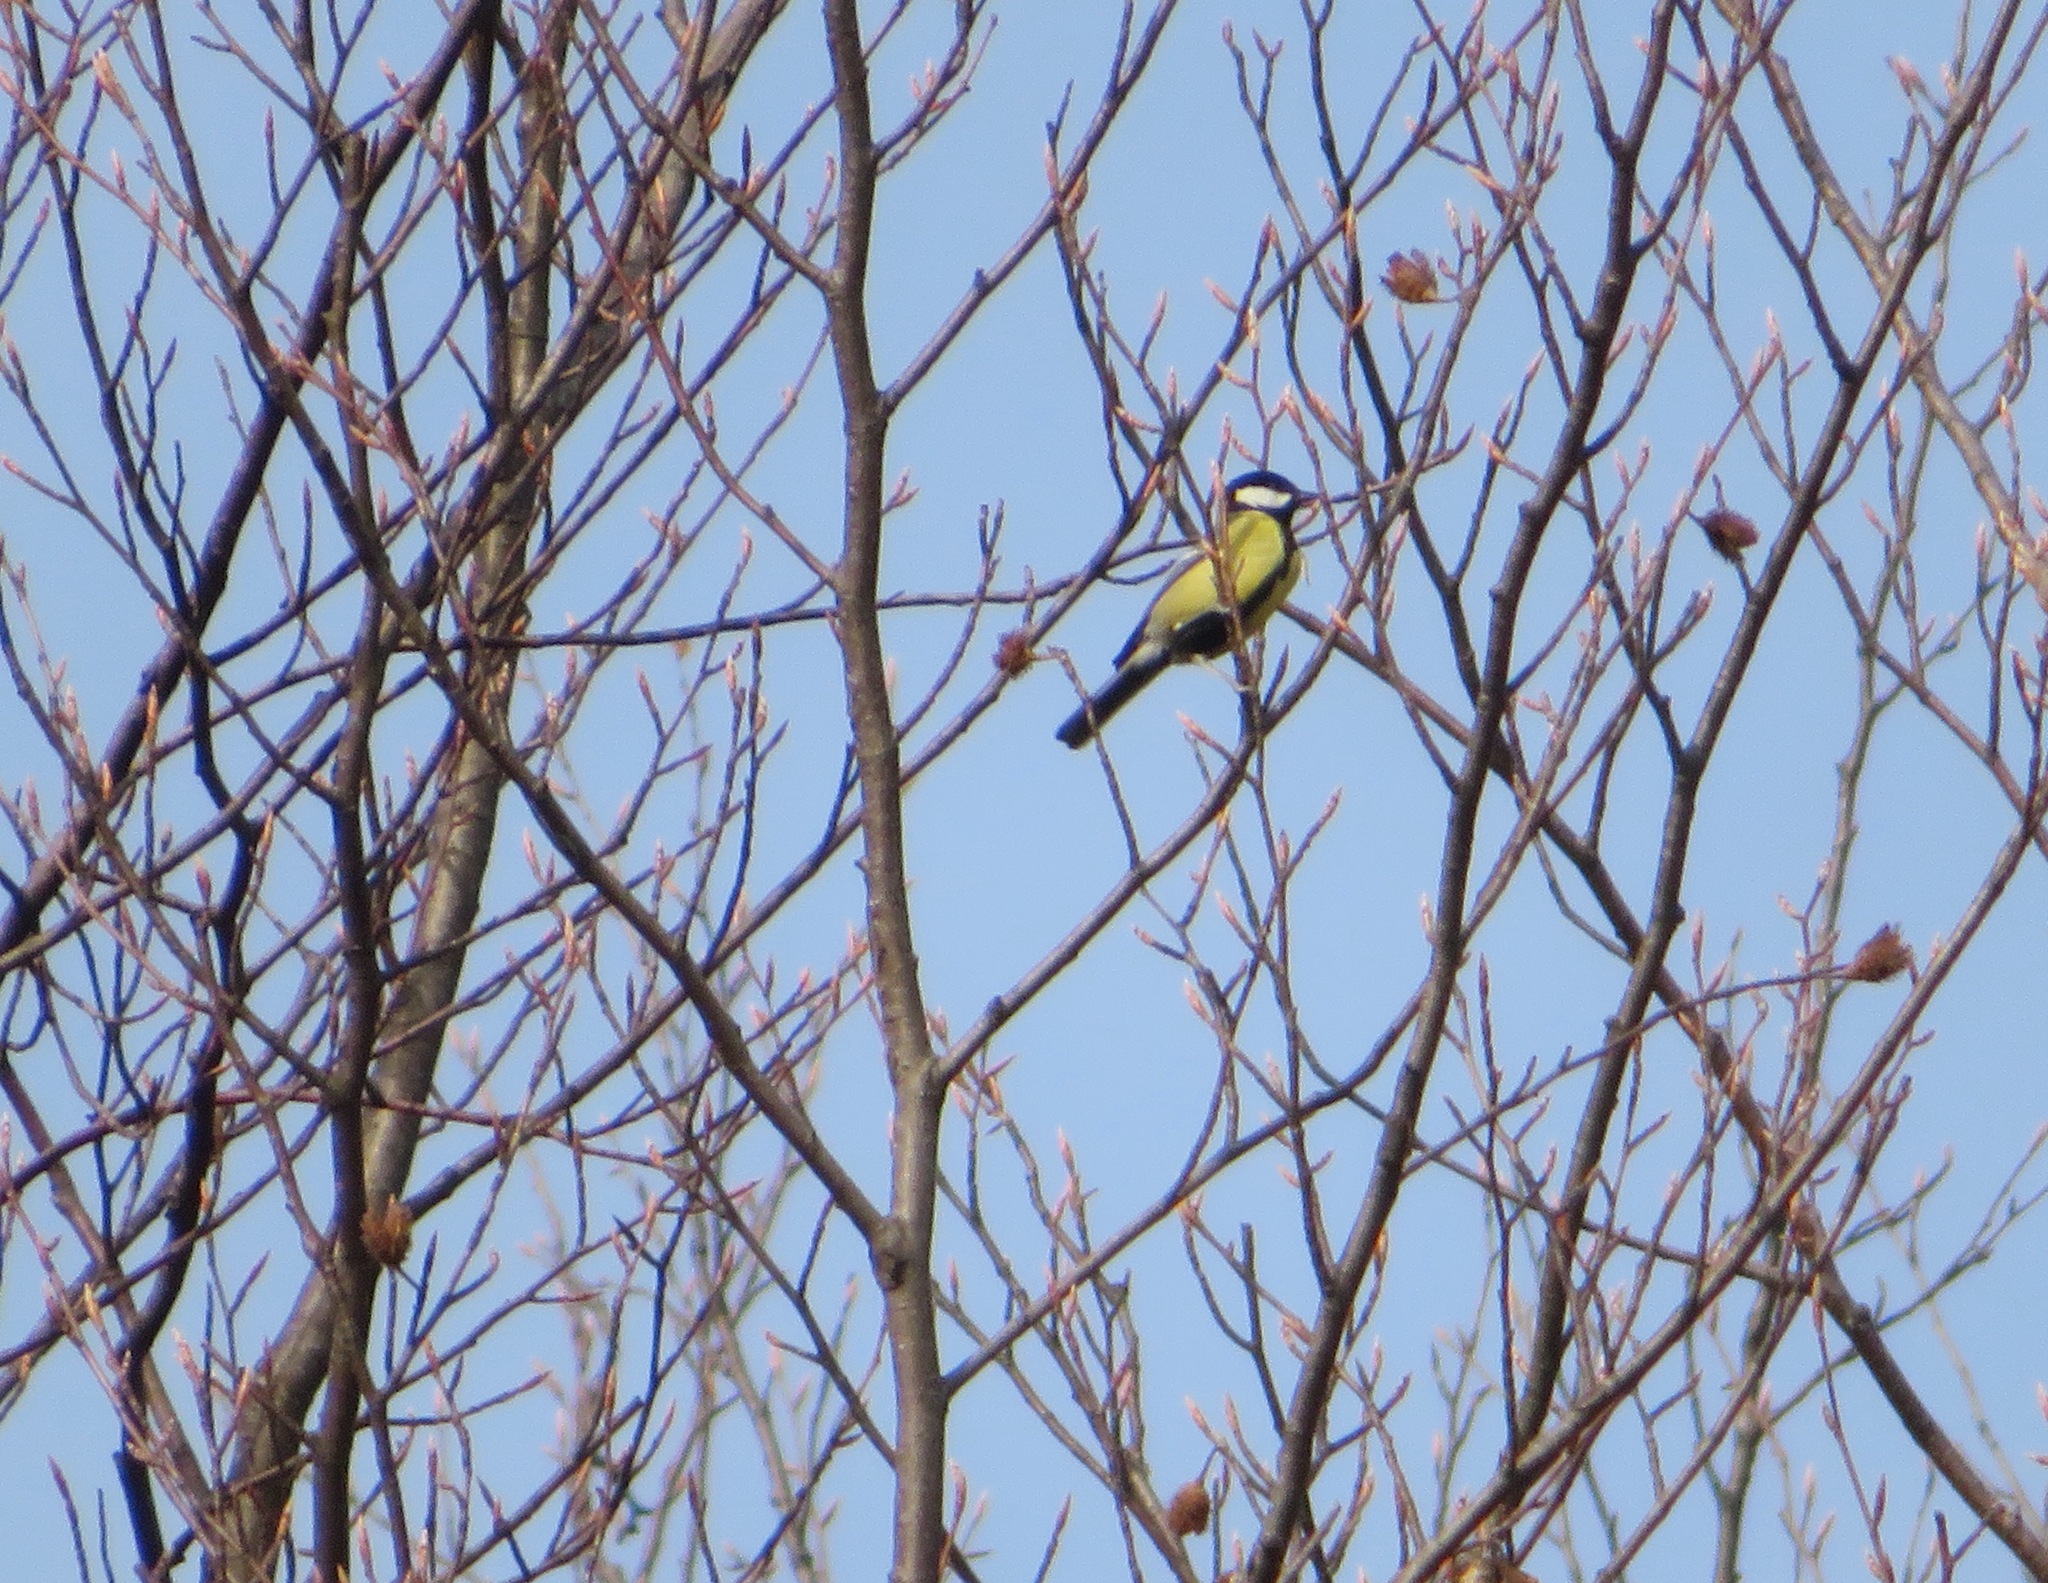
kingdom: Animalia
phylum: Chordata
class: Aves
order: Passeriformes
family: Paridae
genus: Parus
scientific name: Parus major
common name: Great tit
